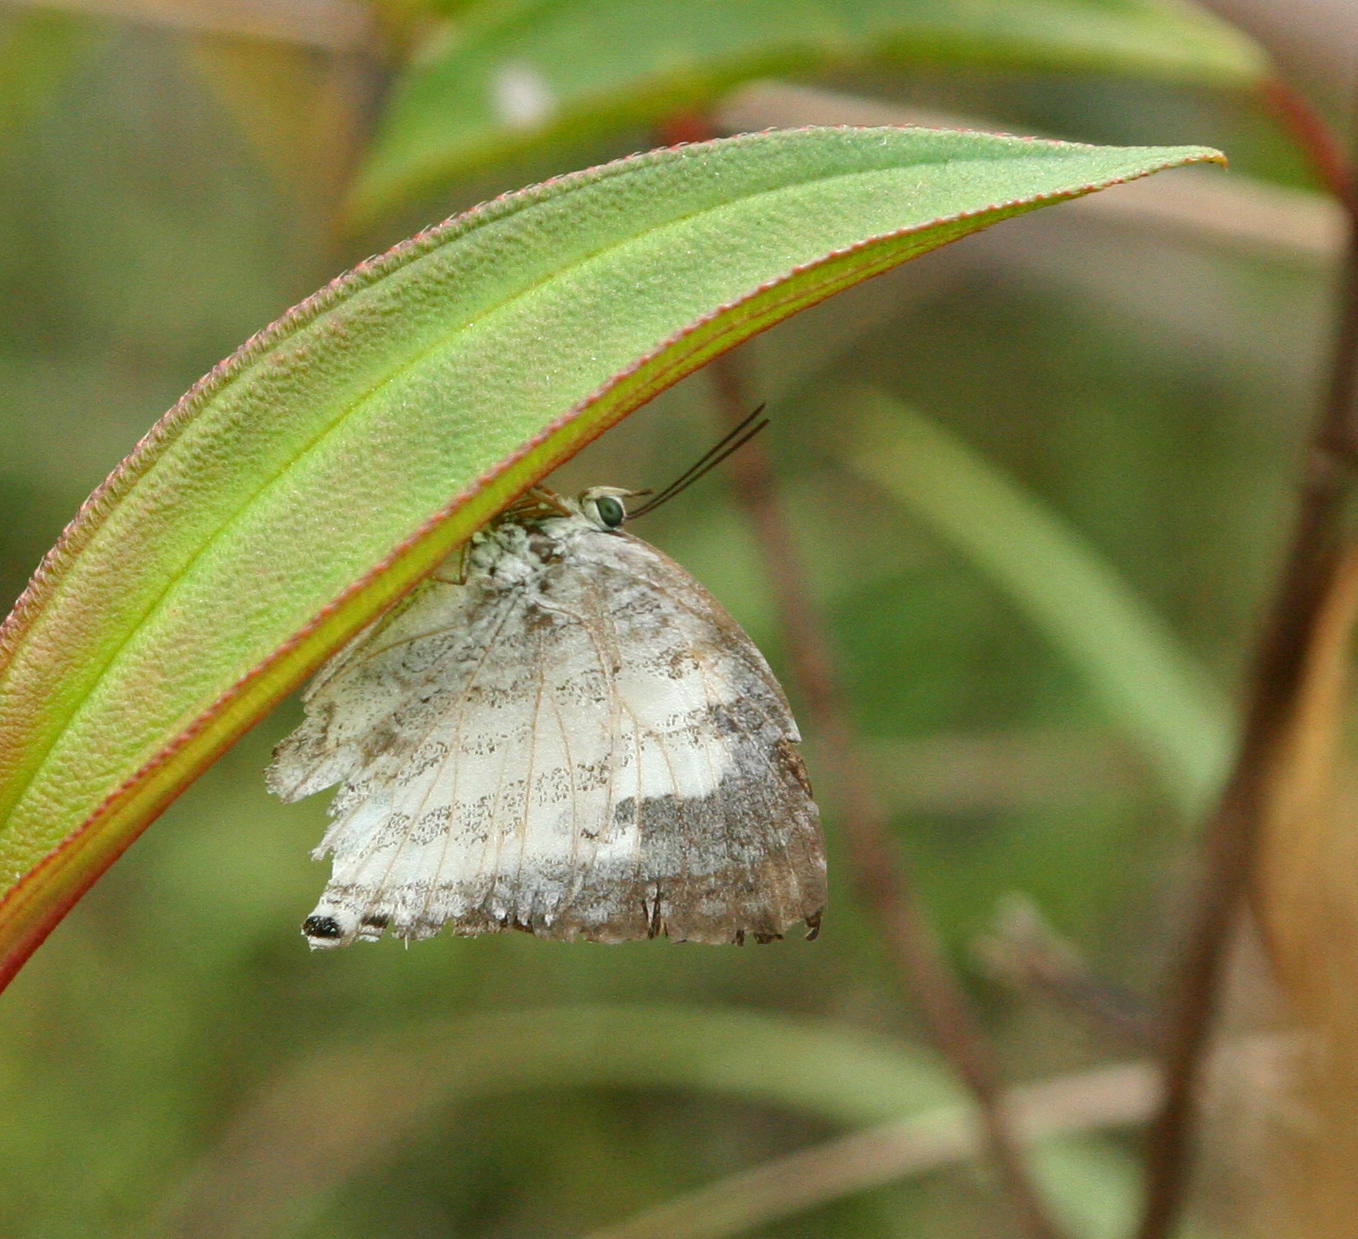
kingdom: Animalia
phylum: Arthropoda
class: Insecta
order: Lepidoptera
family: Lycaenidae
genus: Neomyrina
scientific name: Neomyrina hiemalis
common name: White imperial
